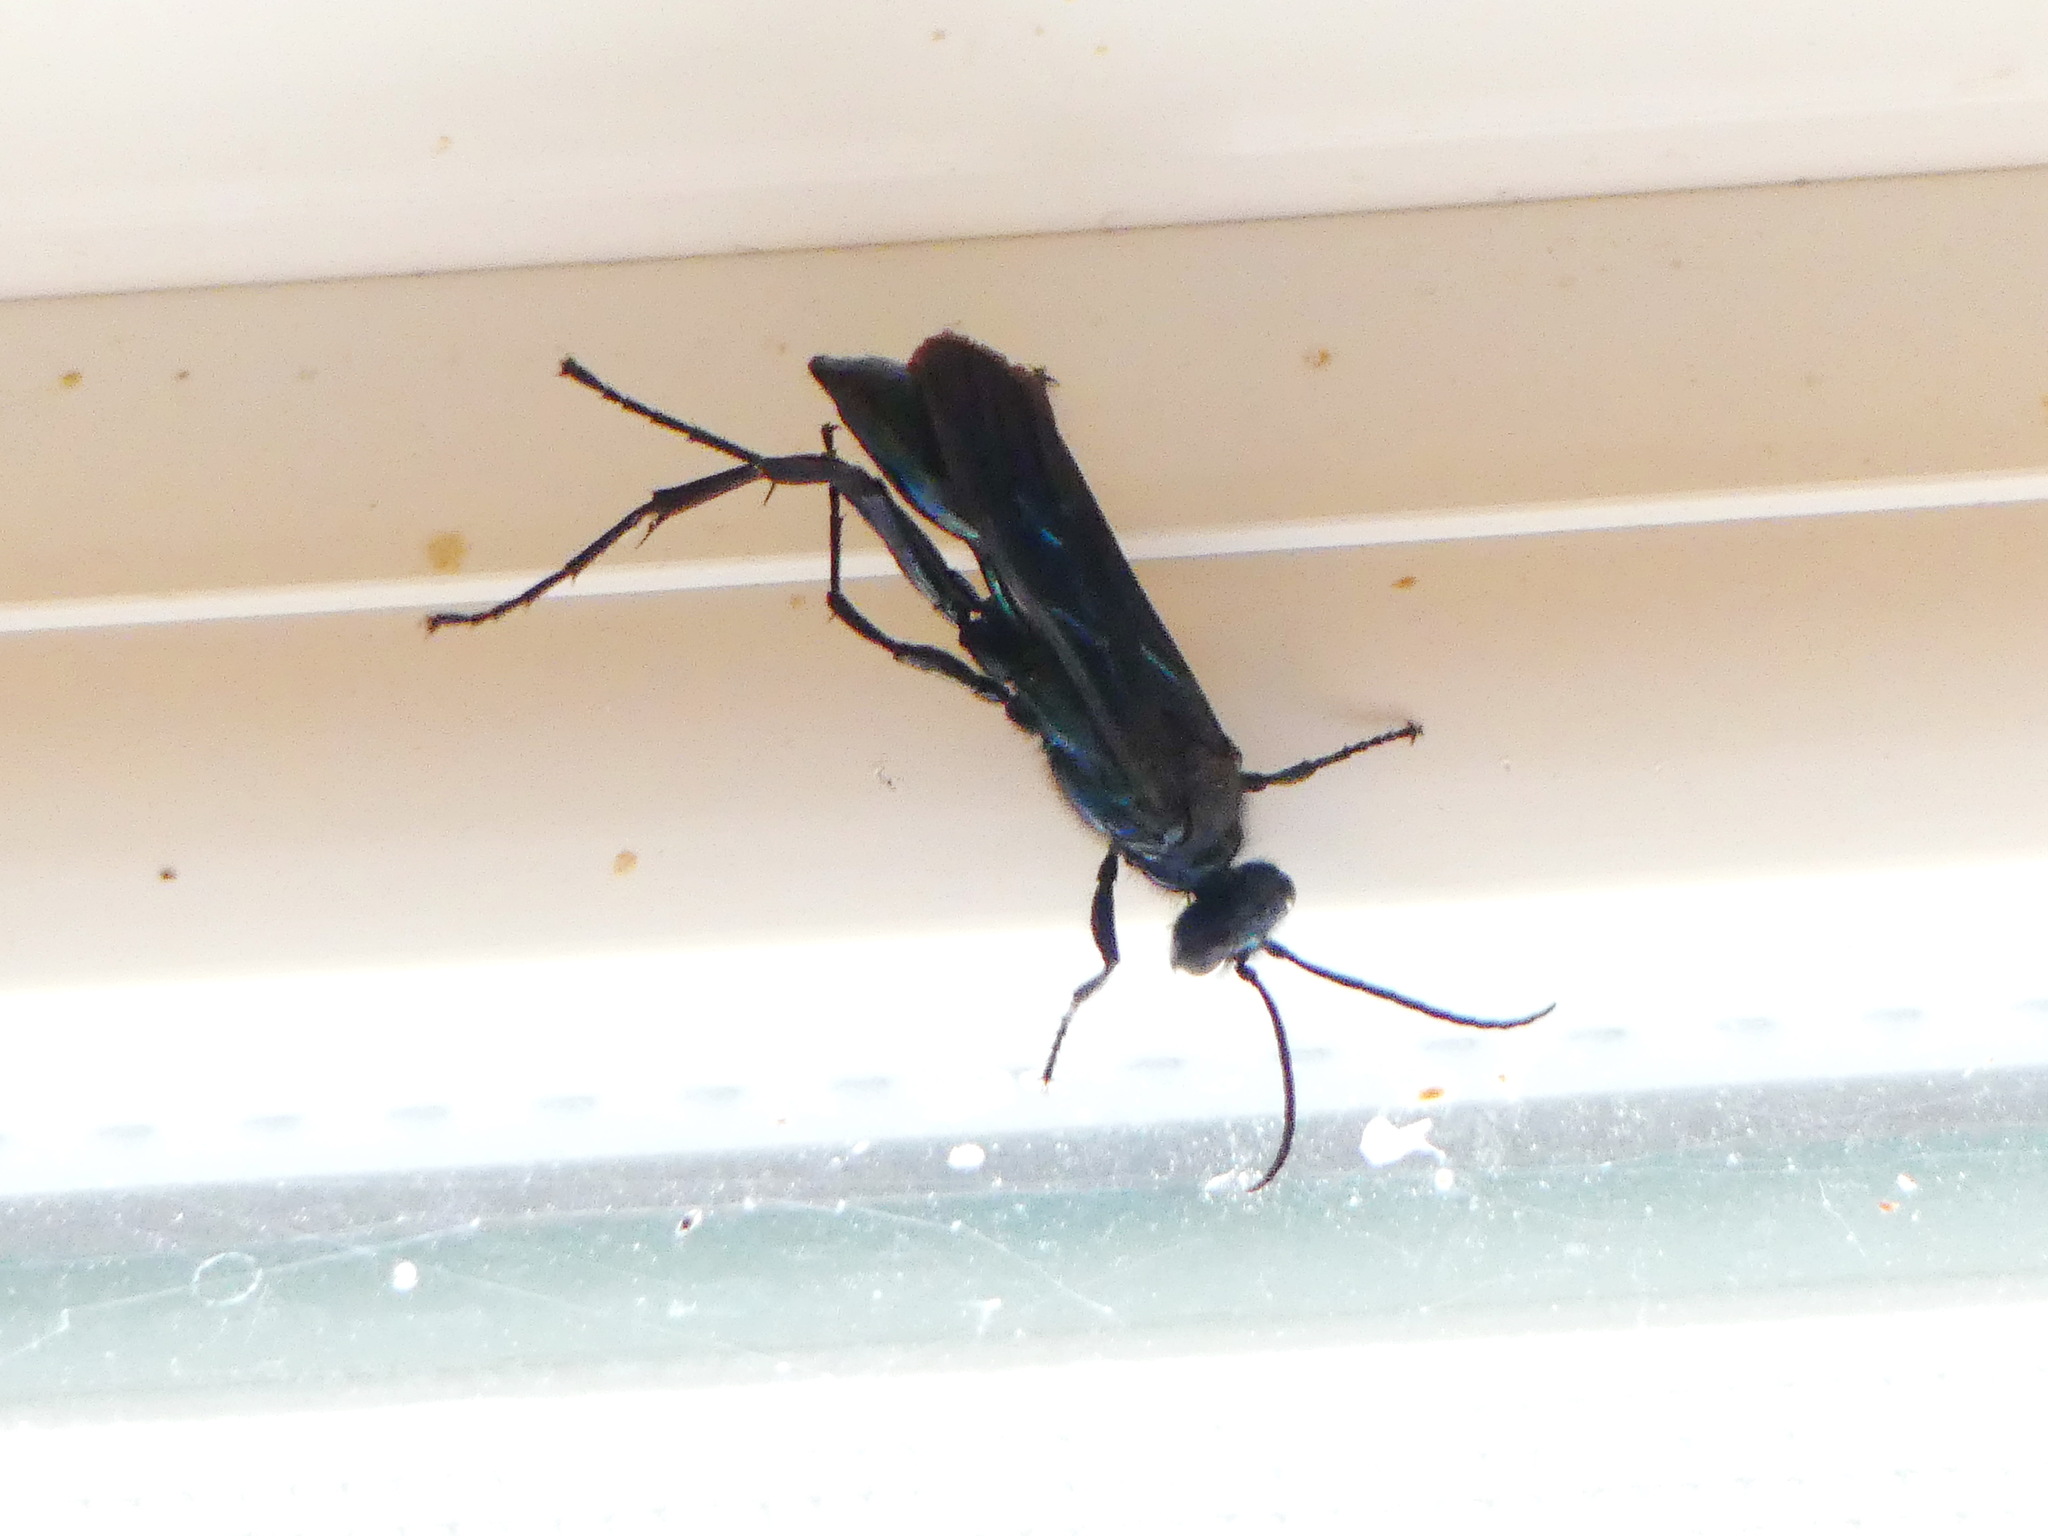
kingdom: Animalia
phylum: Arthropoda
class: Insecta
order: Hymenoptera
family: Sphecidae
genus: Chalybion
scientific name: Chalybion californicum
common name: Mud dauber
